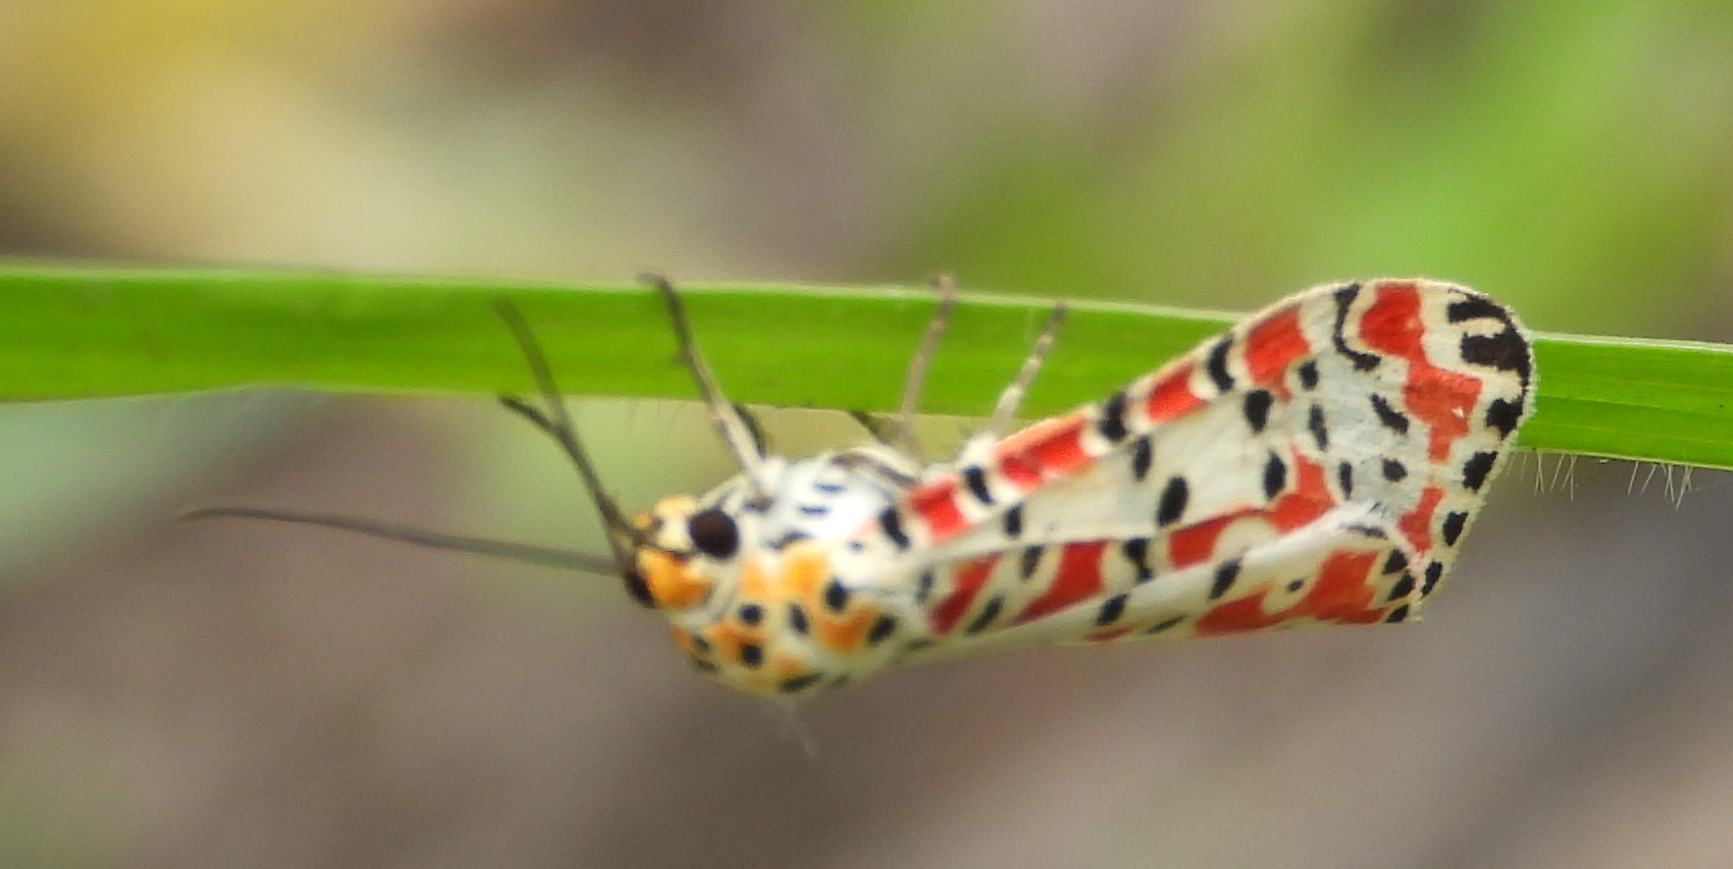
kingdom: Animalia
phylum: Arthropoda
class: Insecta
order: Lepidoptera
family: Erebidae
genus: Utetheisa
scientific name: Utetheisa pulchella
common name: Crimson speckled
